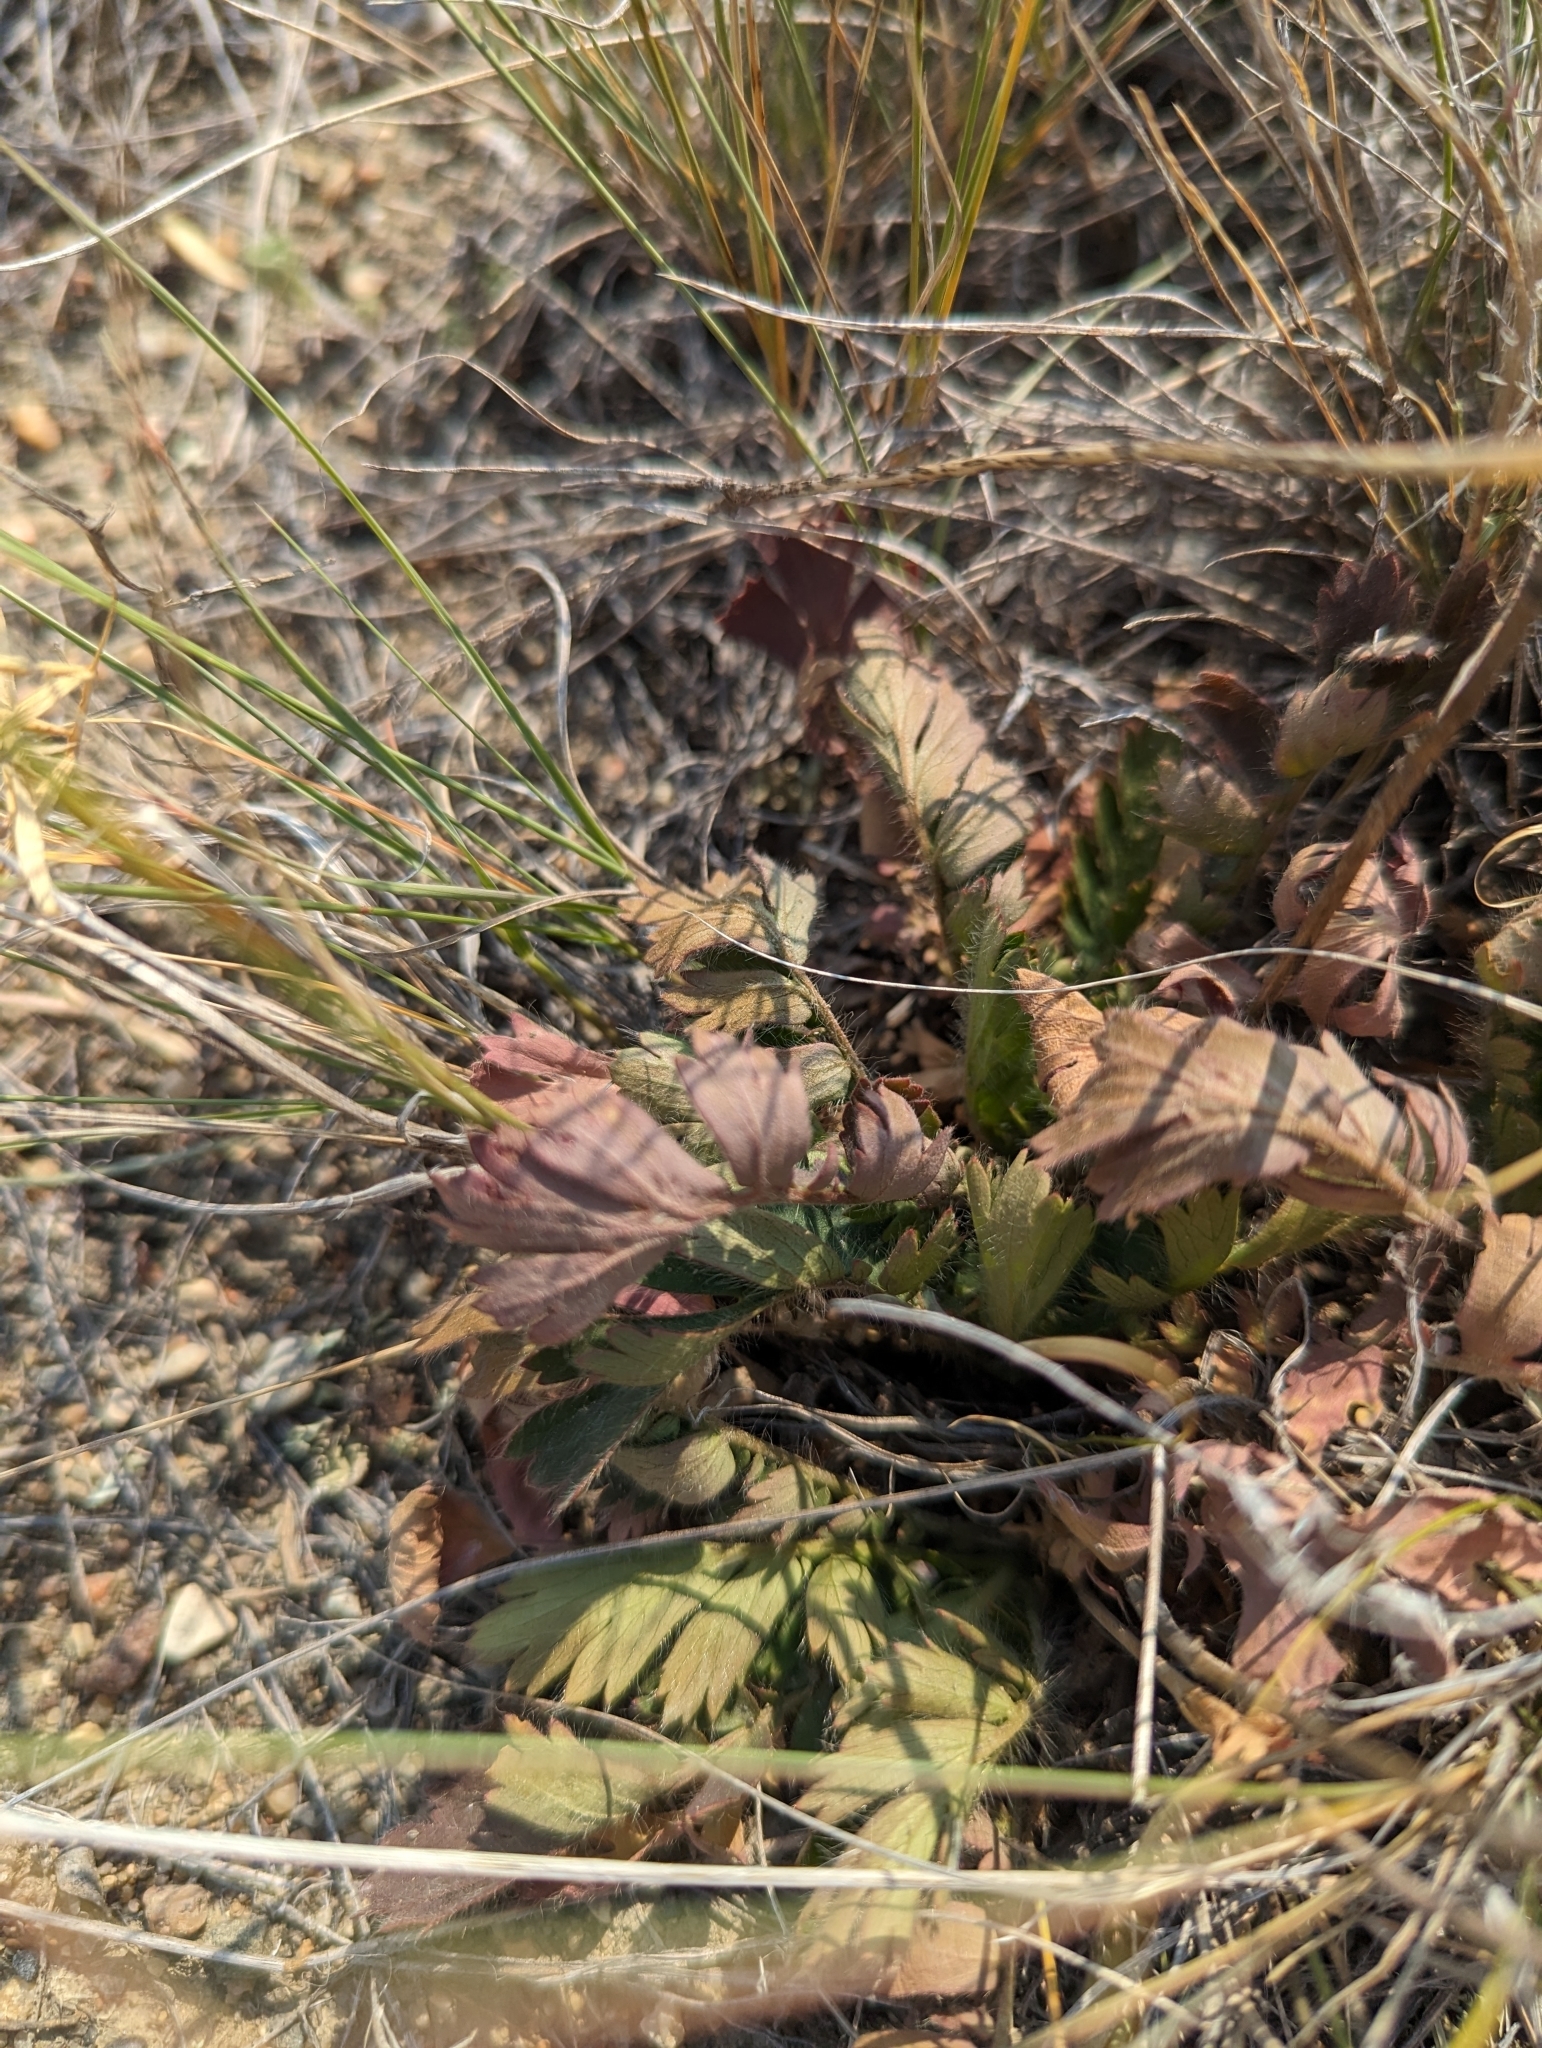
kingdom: Plantae
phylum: Tracheophyta
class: Magnoliopsida
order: Rosales
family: Rosaceae
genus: Geum
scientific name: Geum triflorum
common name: Old man's whiskers
